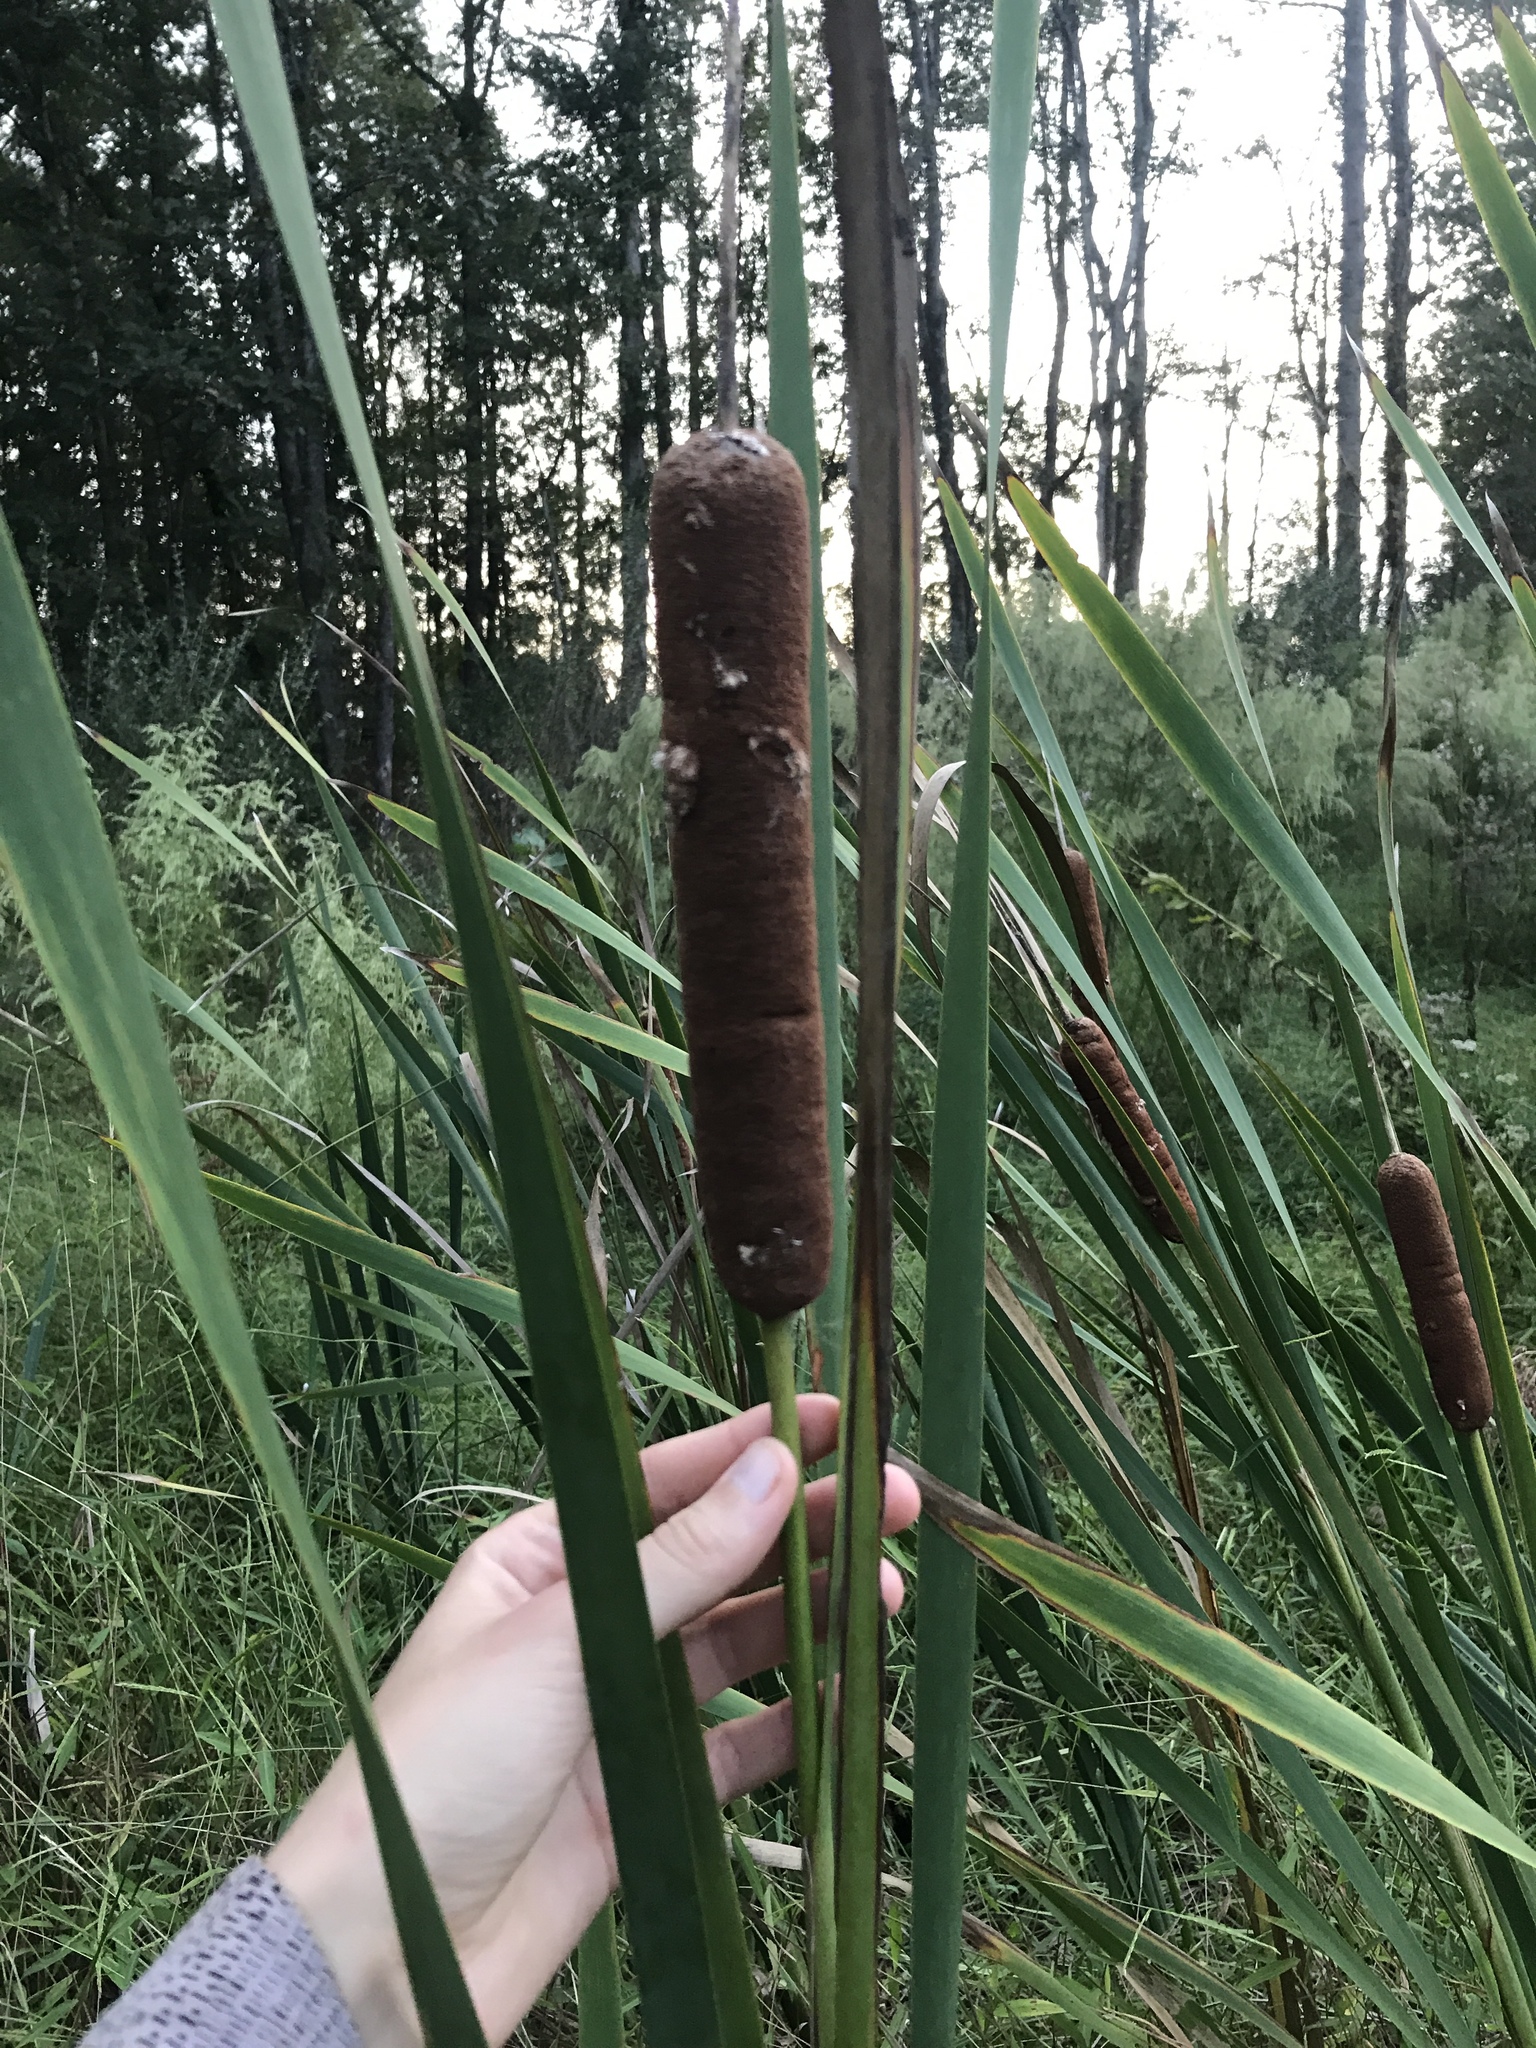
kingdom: Plantae
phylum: Tracheophyta
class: Liliopsida
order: Poales
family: Typhaceae
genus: Typha
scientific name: Typha latifolia
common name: Broadleaf cattail
